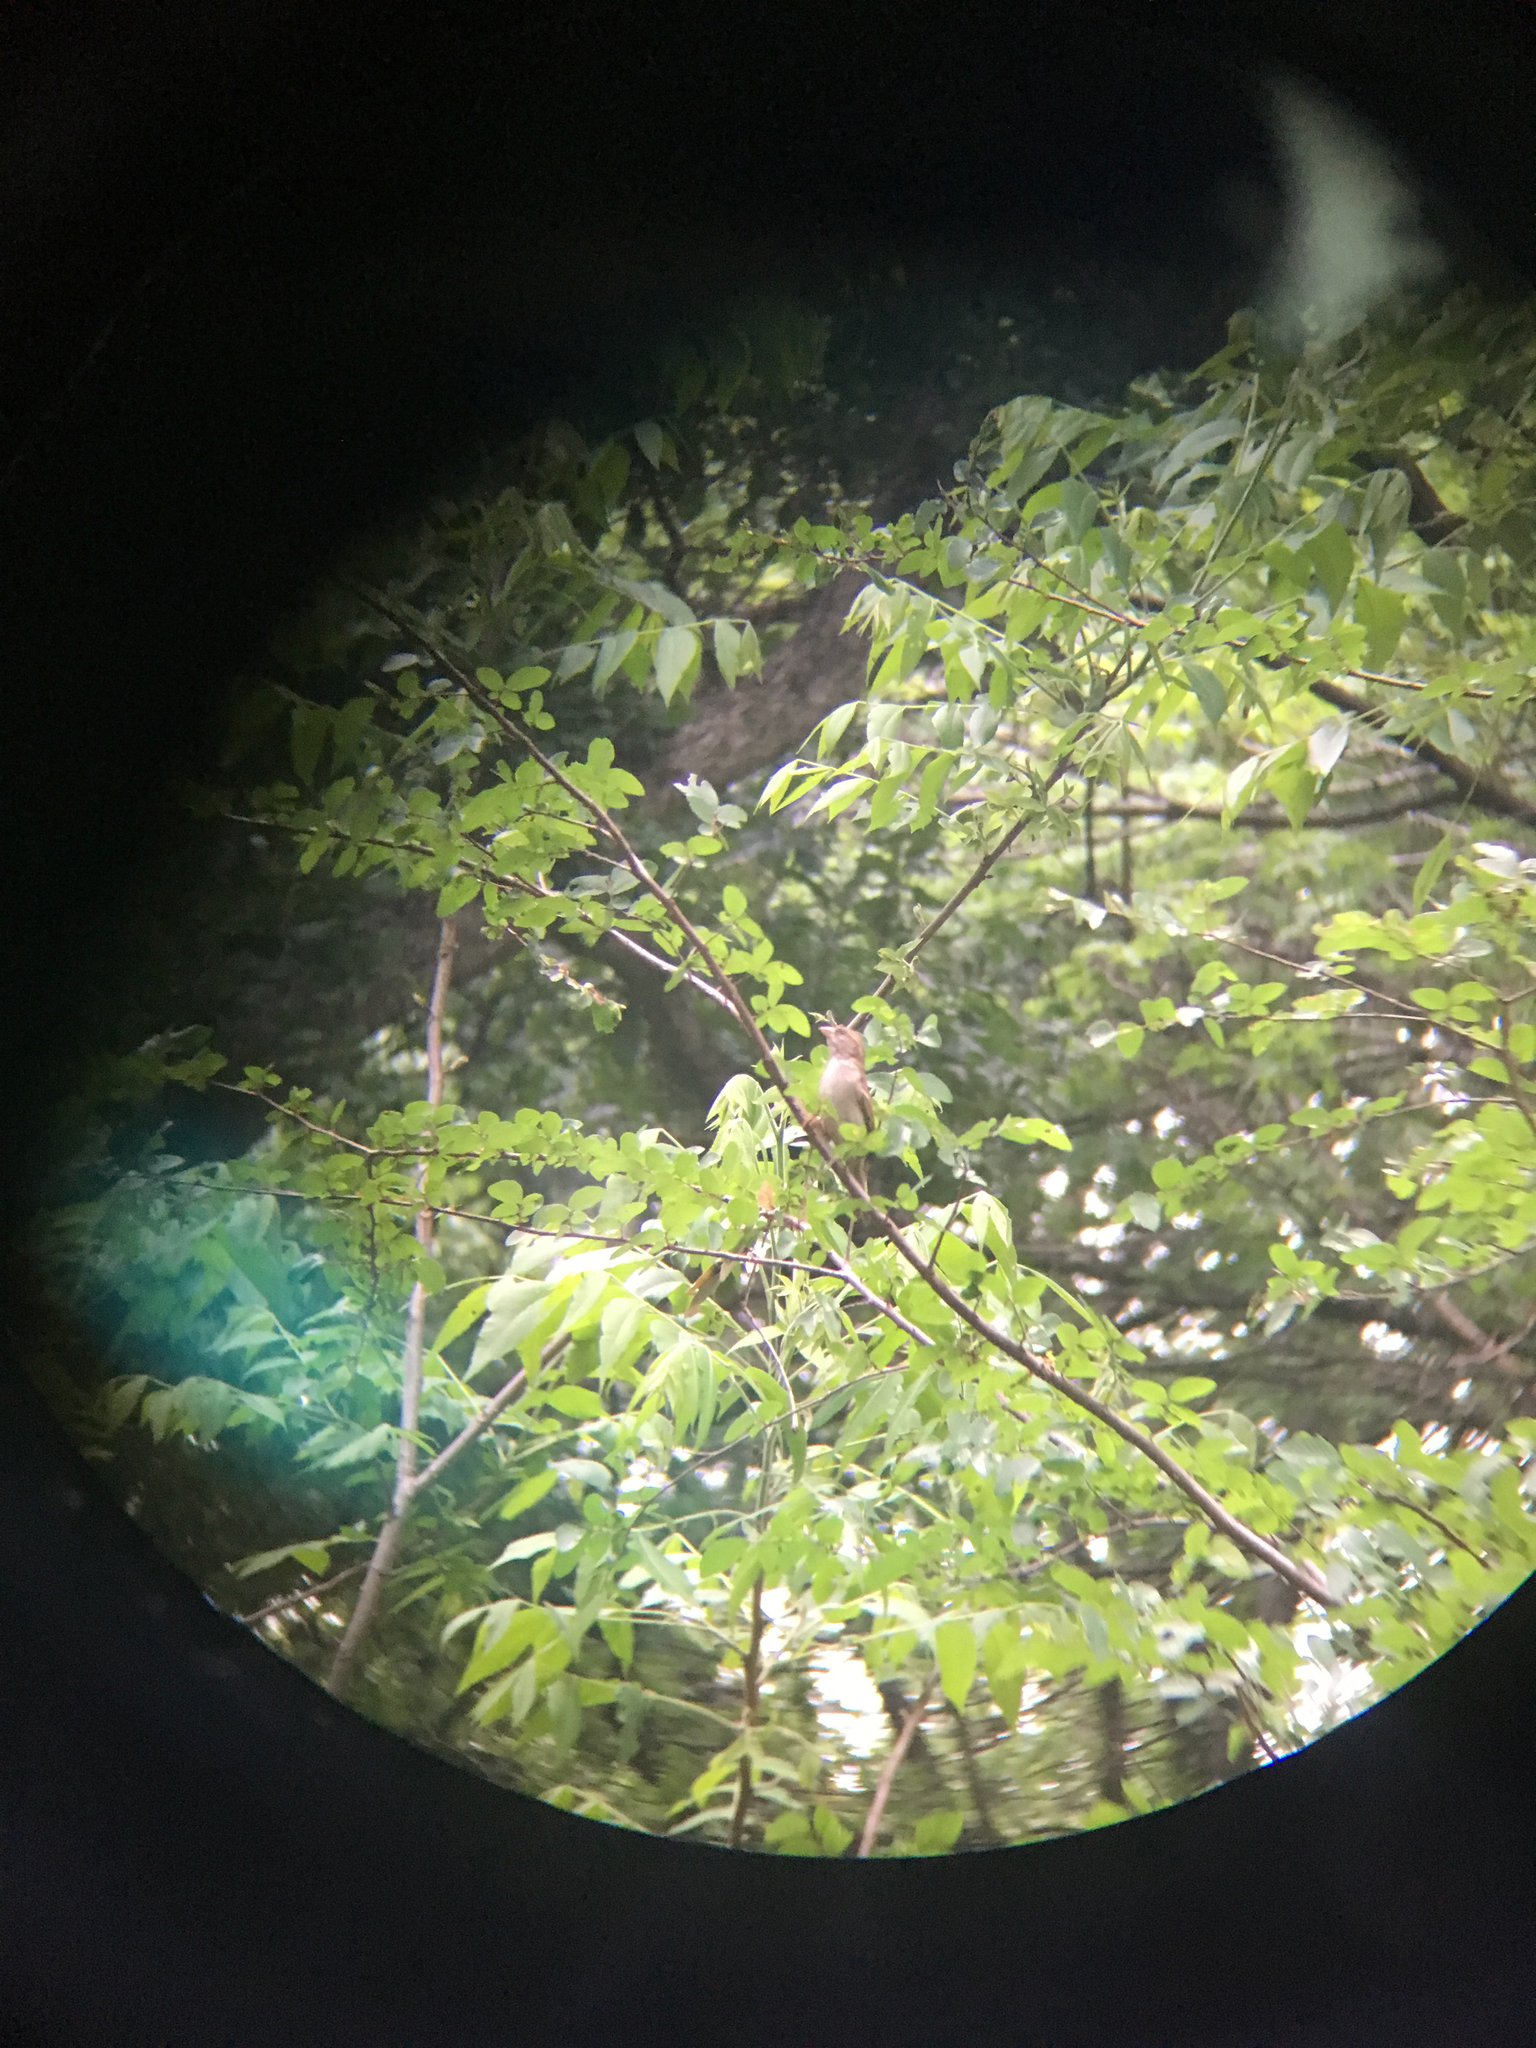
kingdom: Animalia
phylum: Chordata
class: Aves
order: Passeriformes
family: Passeridae
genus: Passer
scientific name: Passer domesticus
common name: House sparrow
